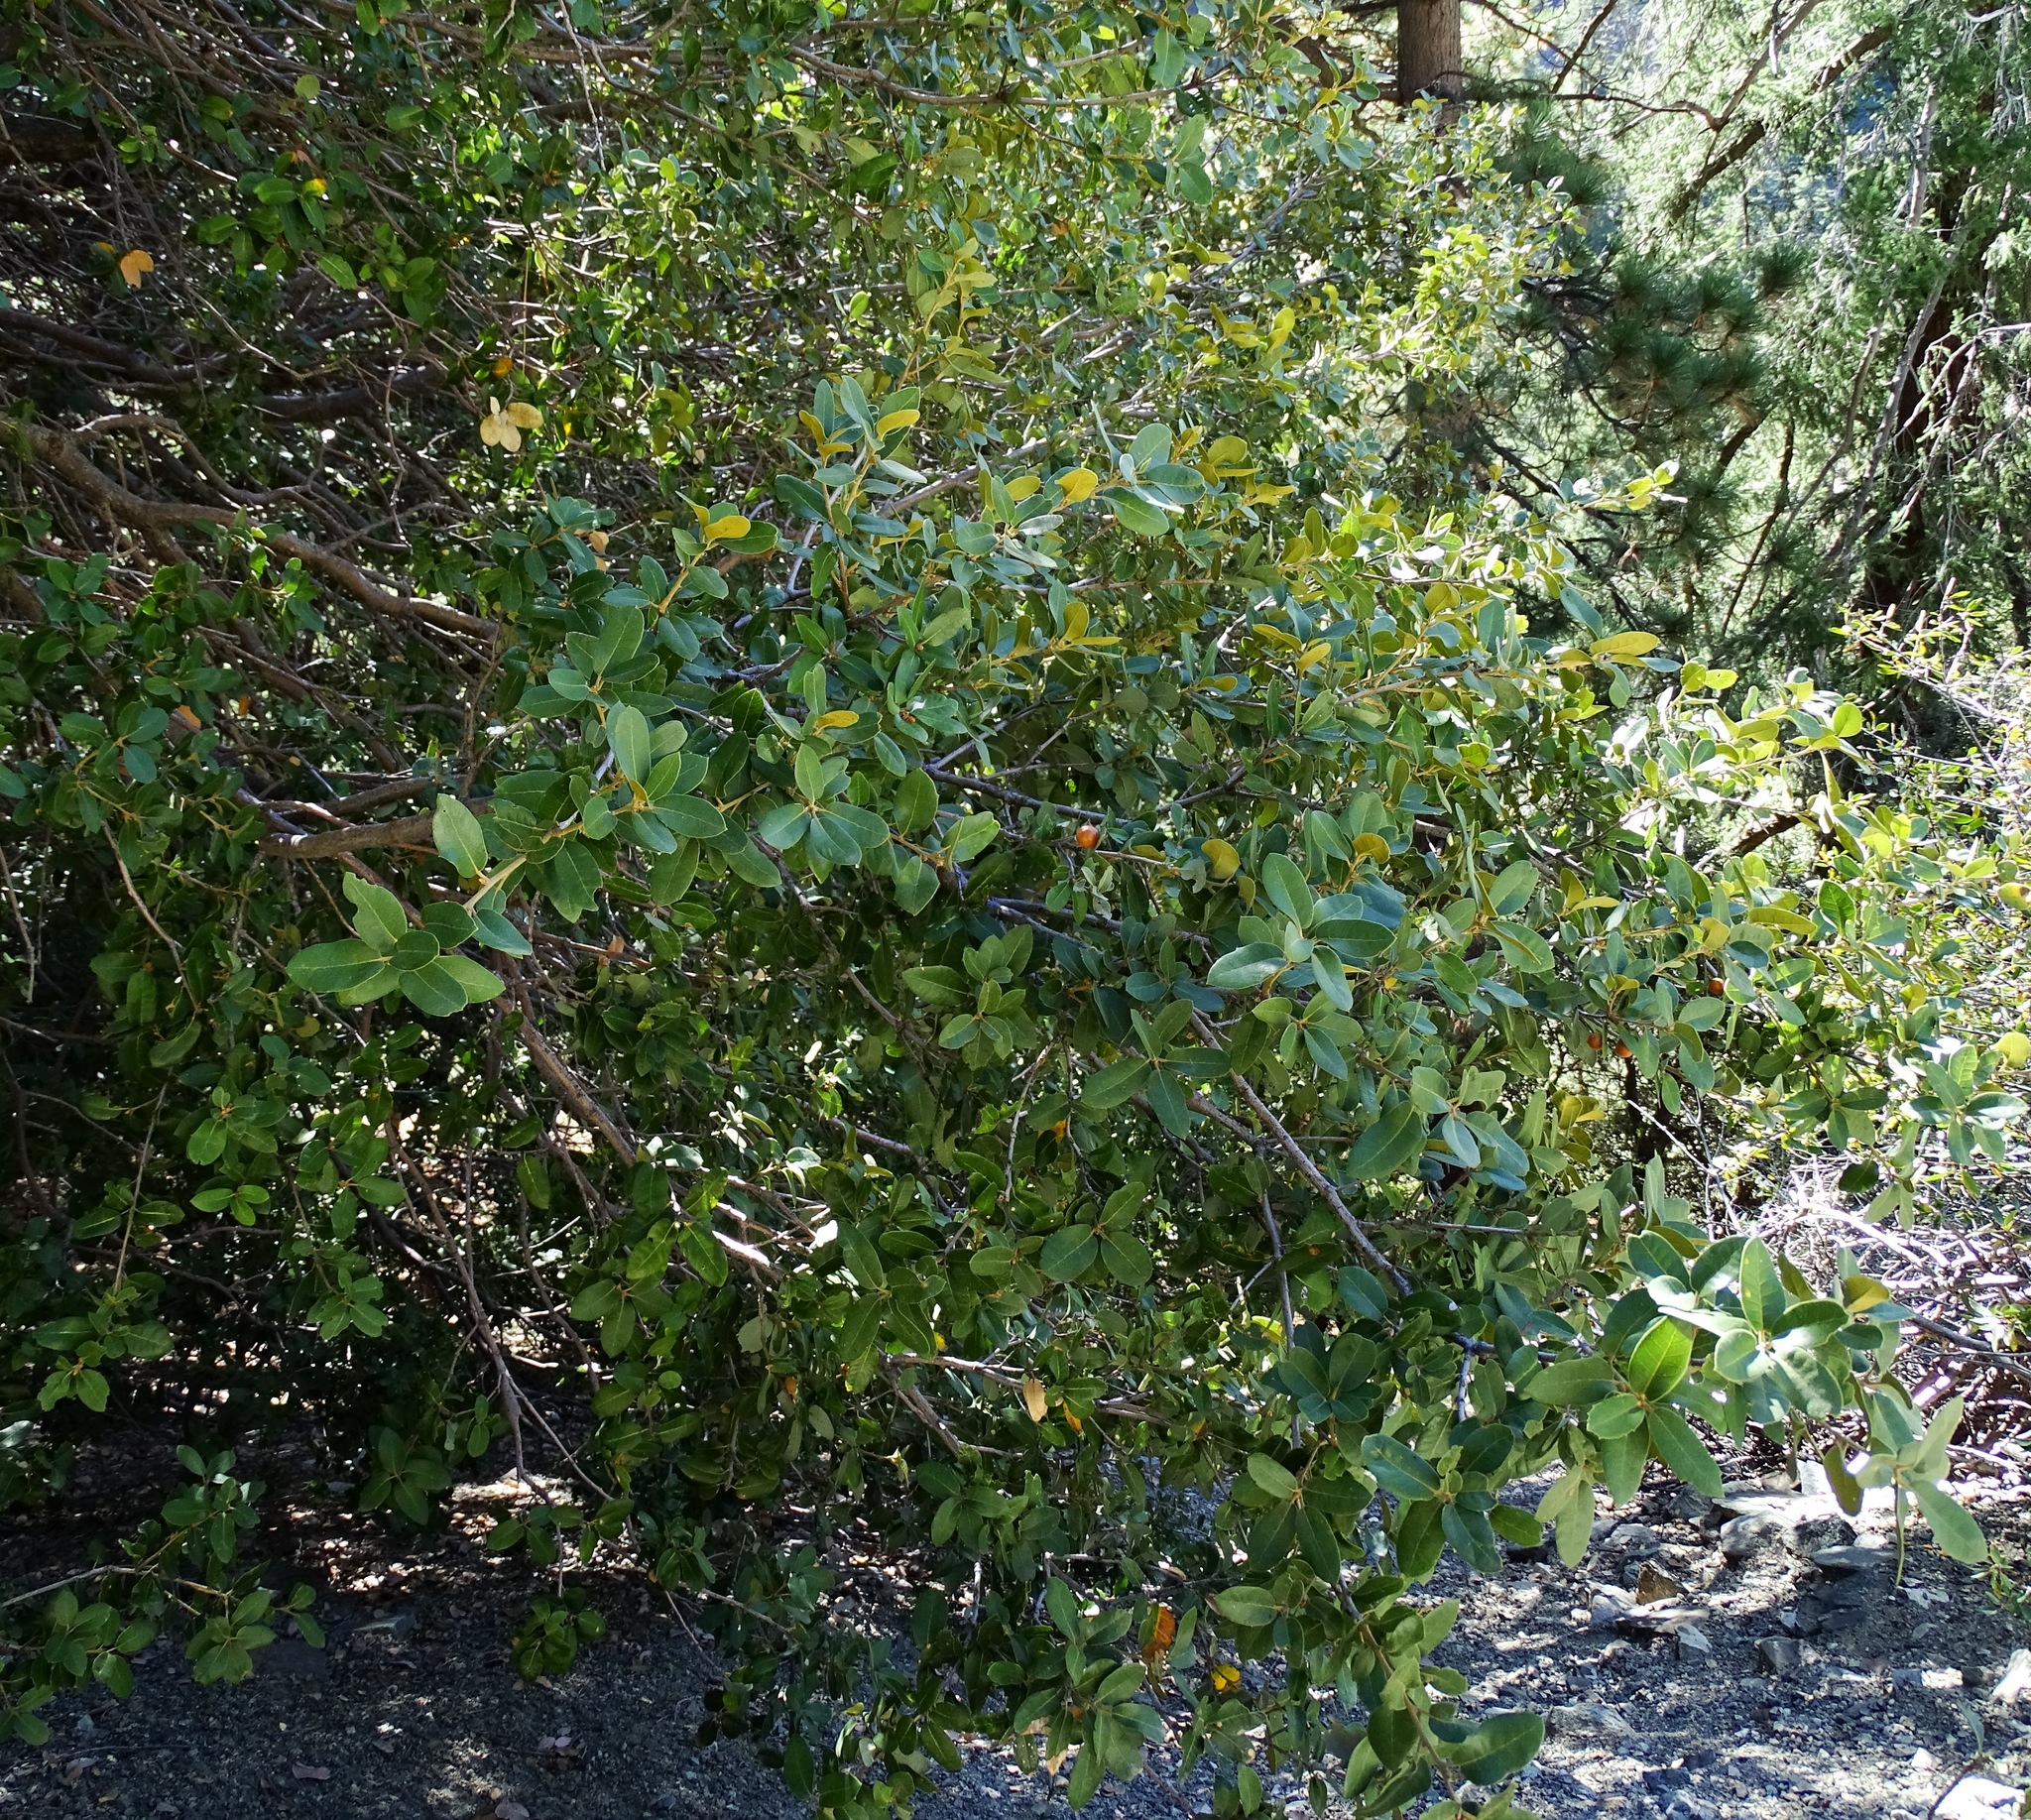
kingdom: Plantae
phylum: Tracheophyta
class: Magnoliopsida
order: Fagales
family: Fagaceae
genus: Quercus
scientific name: Quercus chrysolepis
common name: Canyon live oak
